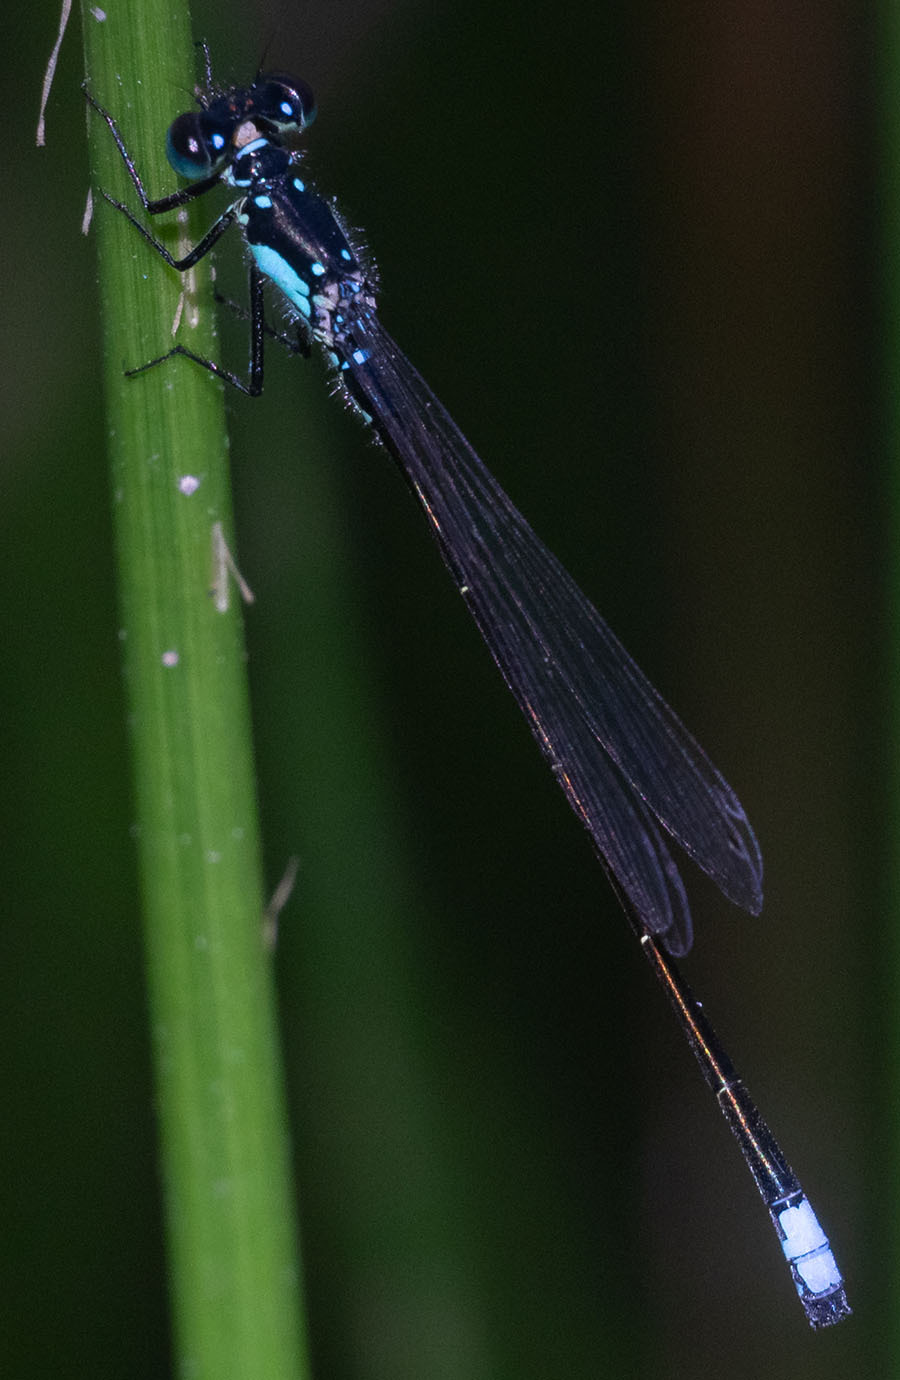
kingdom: Animalia
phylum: Arthropoda
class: Insecta
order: Odonata
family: Coenagrionidae
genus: Ischnura
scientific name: Ischnura cervula
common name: Pacific forktail
